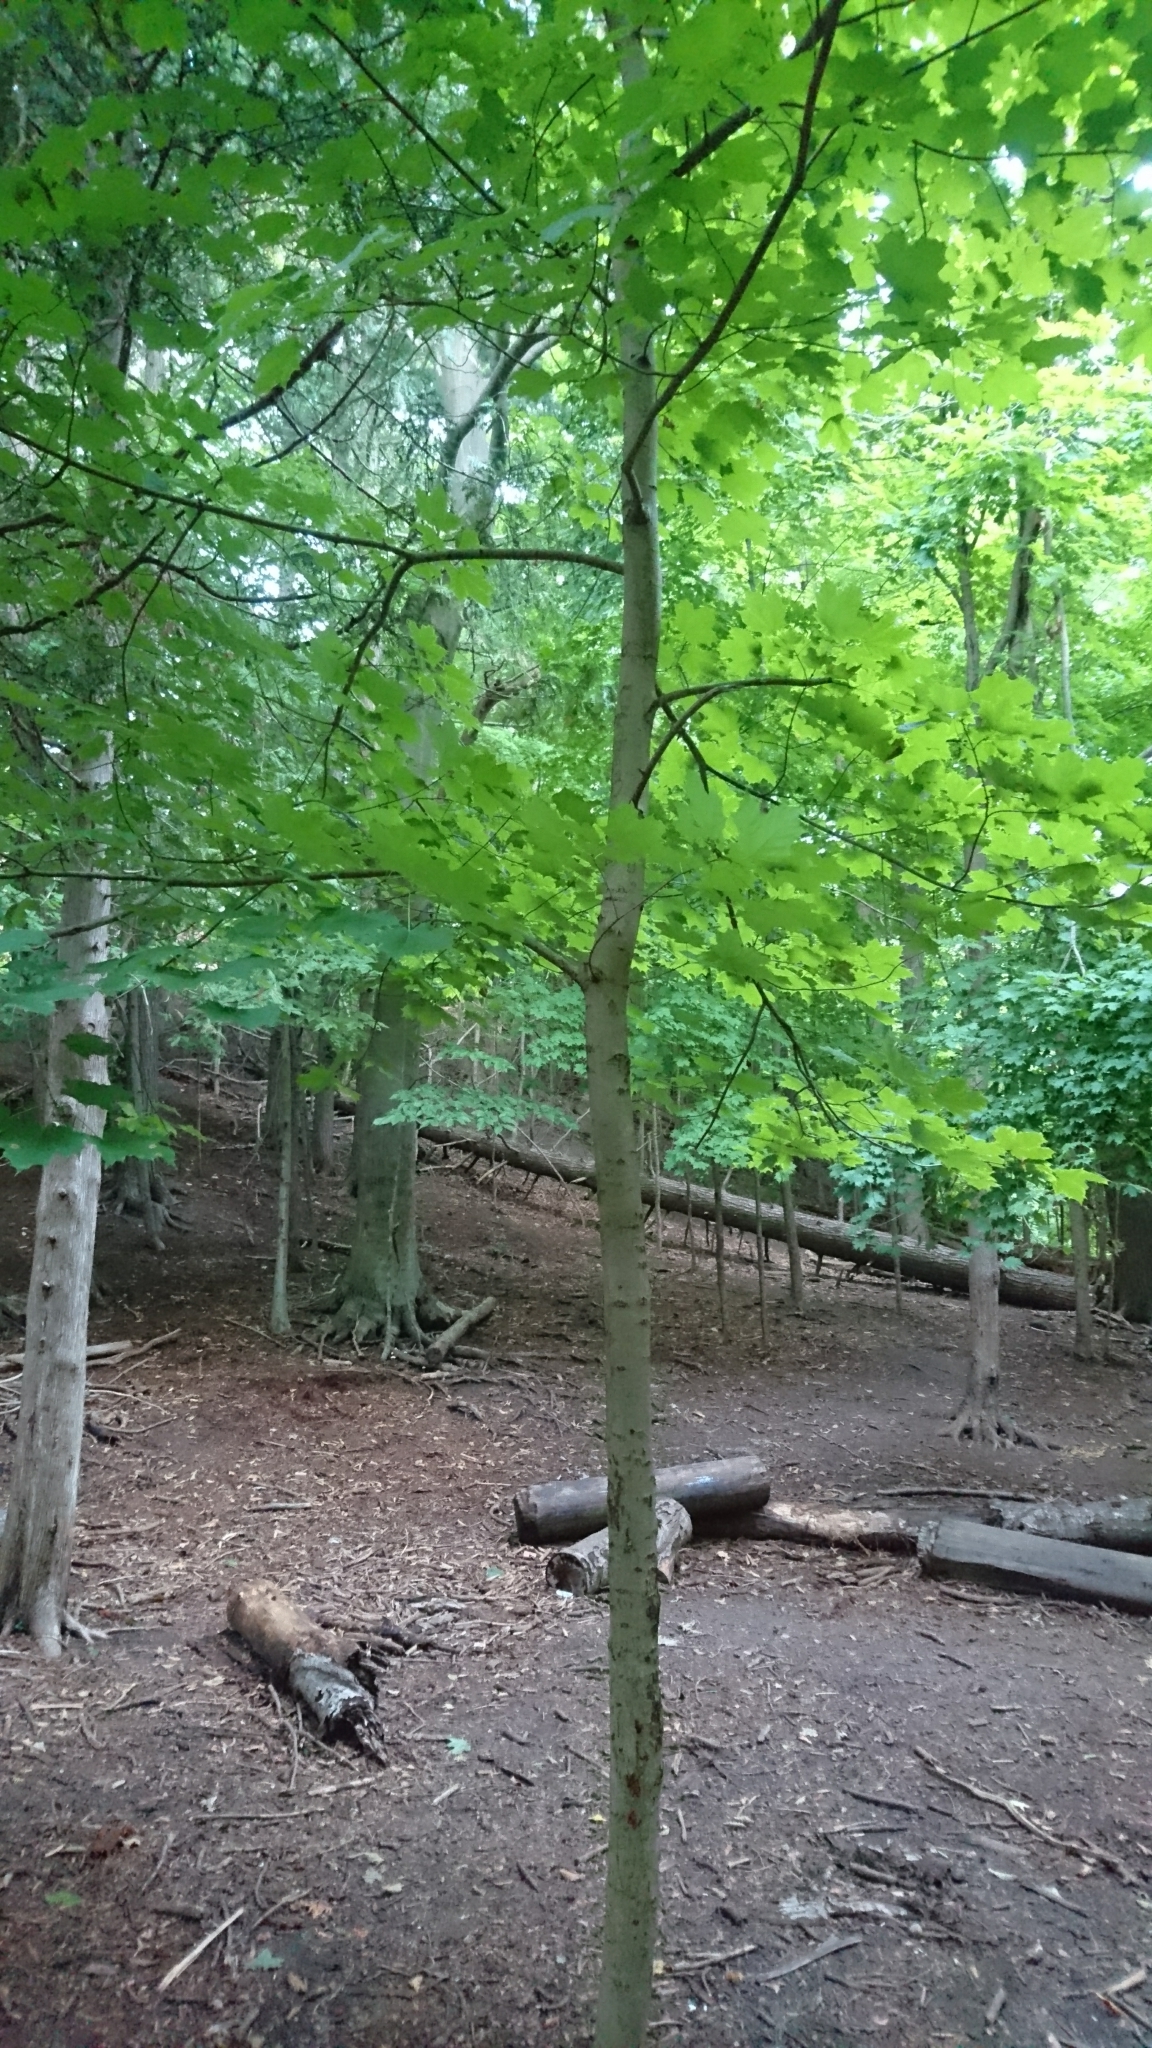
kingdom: Plantae
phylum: Tracheophyta
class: Magnoliopsida
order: Sapindales
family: Sapindaceae
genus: Acer
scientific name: Acer saccharum
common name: Sugar maple
